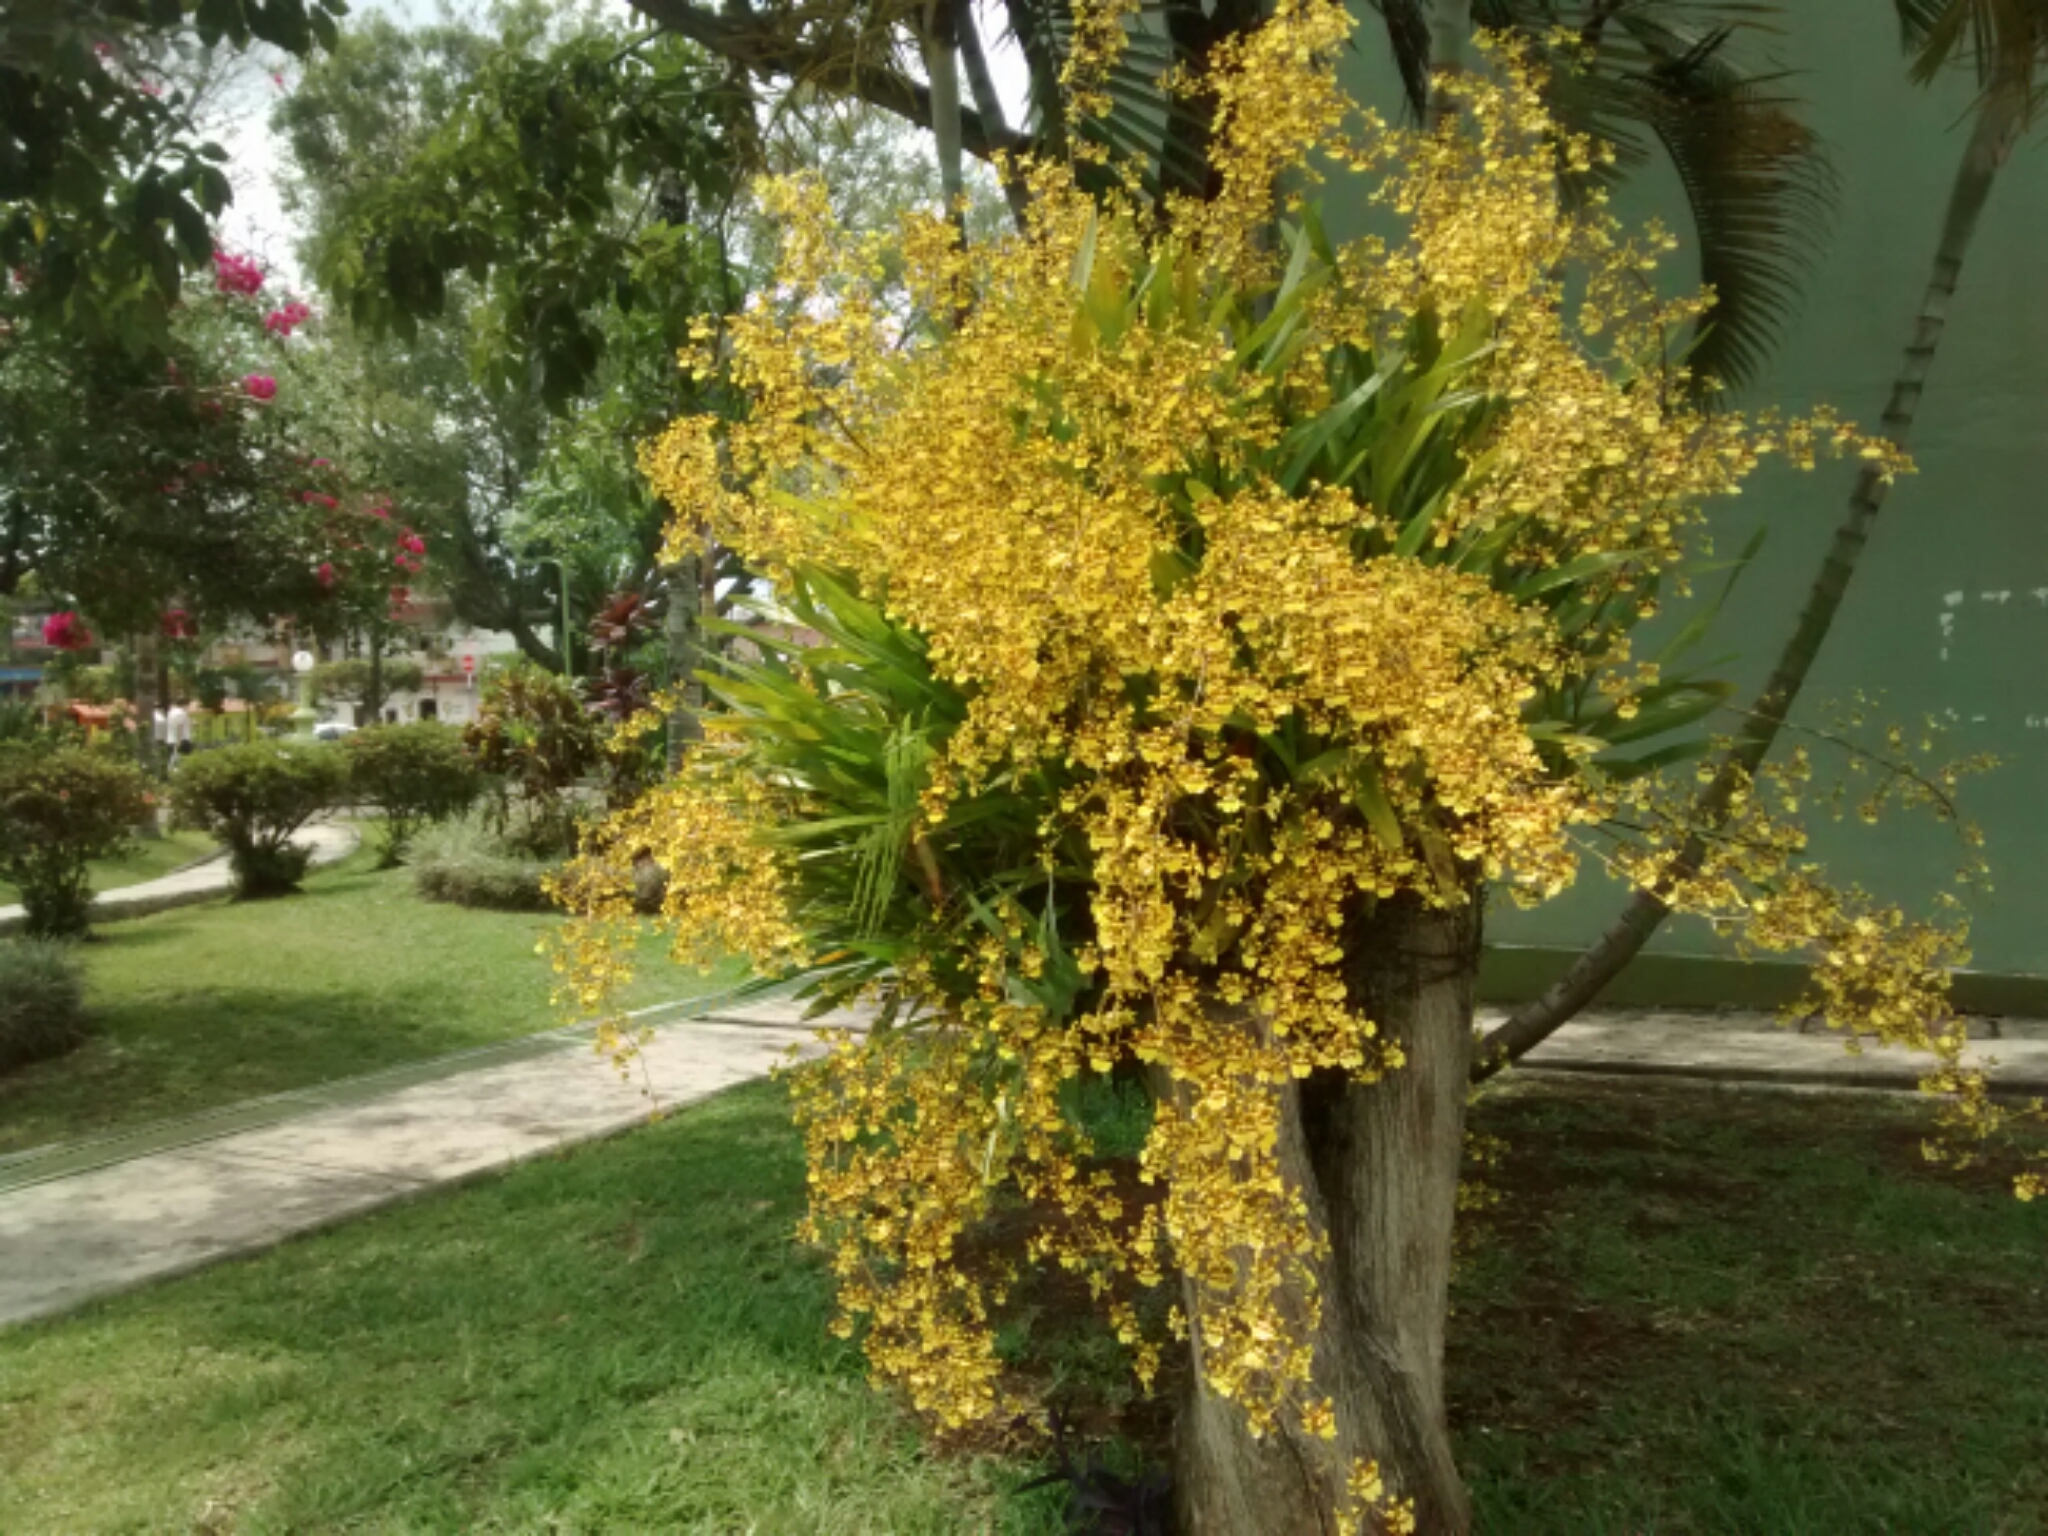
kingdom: Plantae
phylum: Tracheophyta
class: Liliopsida
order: Asparagales
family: Orchidaceae
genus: Oncidium
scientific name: Oncidium sphacelatum
